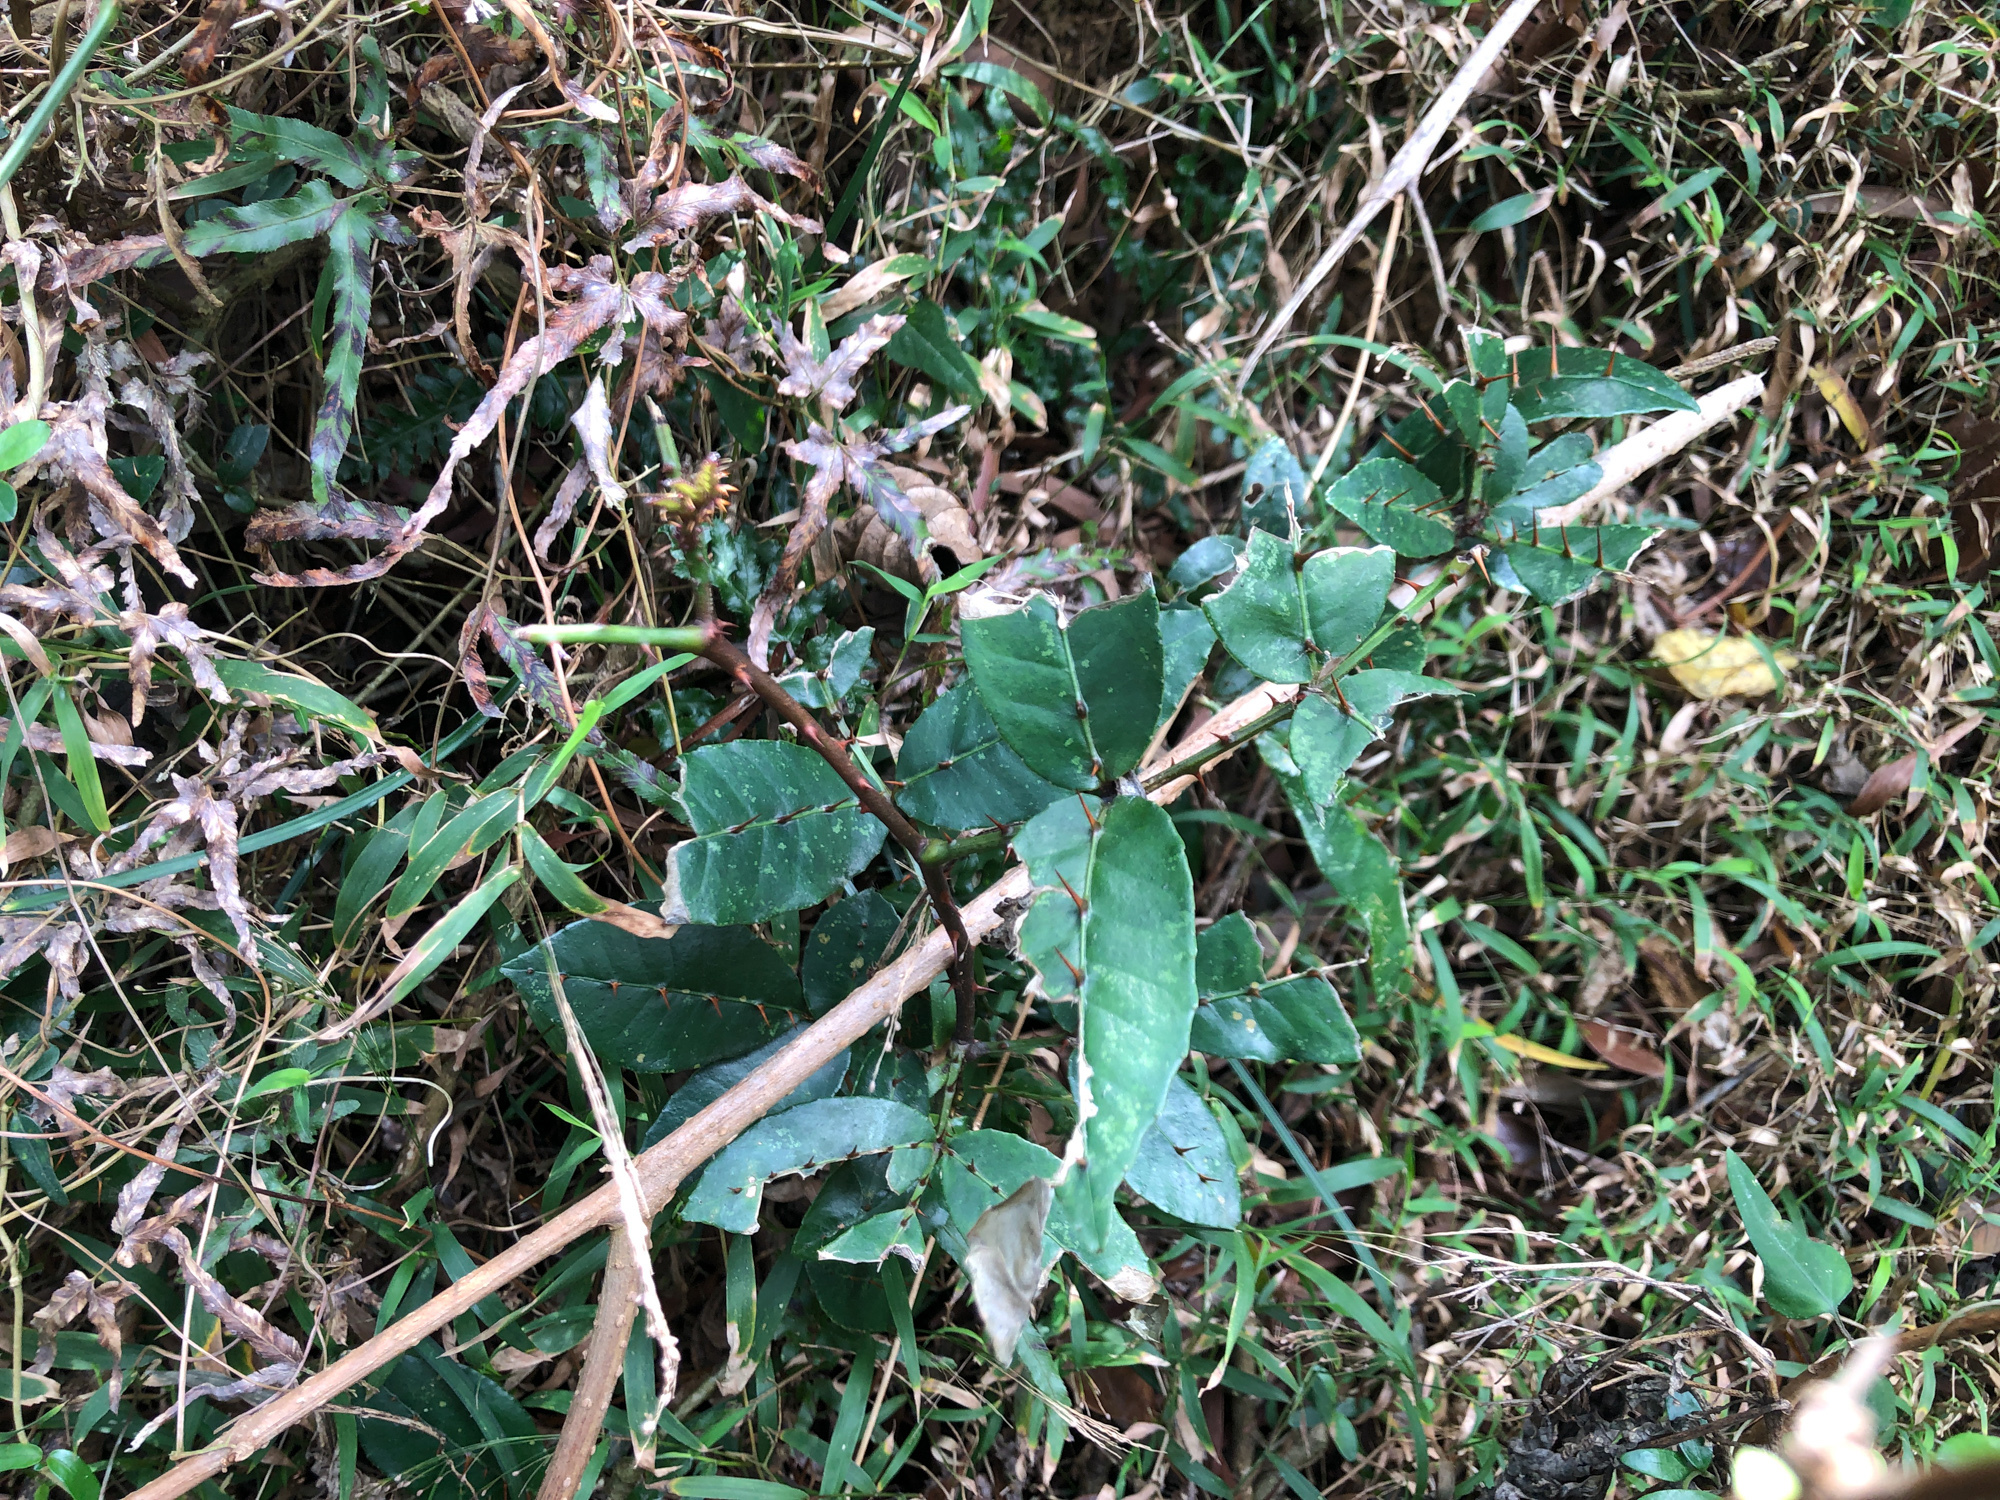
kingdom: Plantae
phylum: Tracheophyta
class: Magnoliopsida
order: Sapindales
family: Rutaceae
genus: Zanthoxylum
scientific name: Zanthoxylum nitidum
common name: Shiny-leaf prickly-ash
